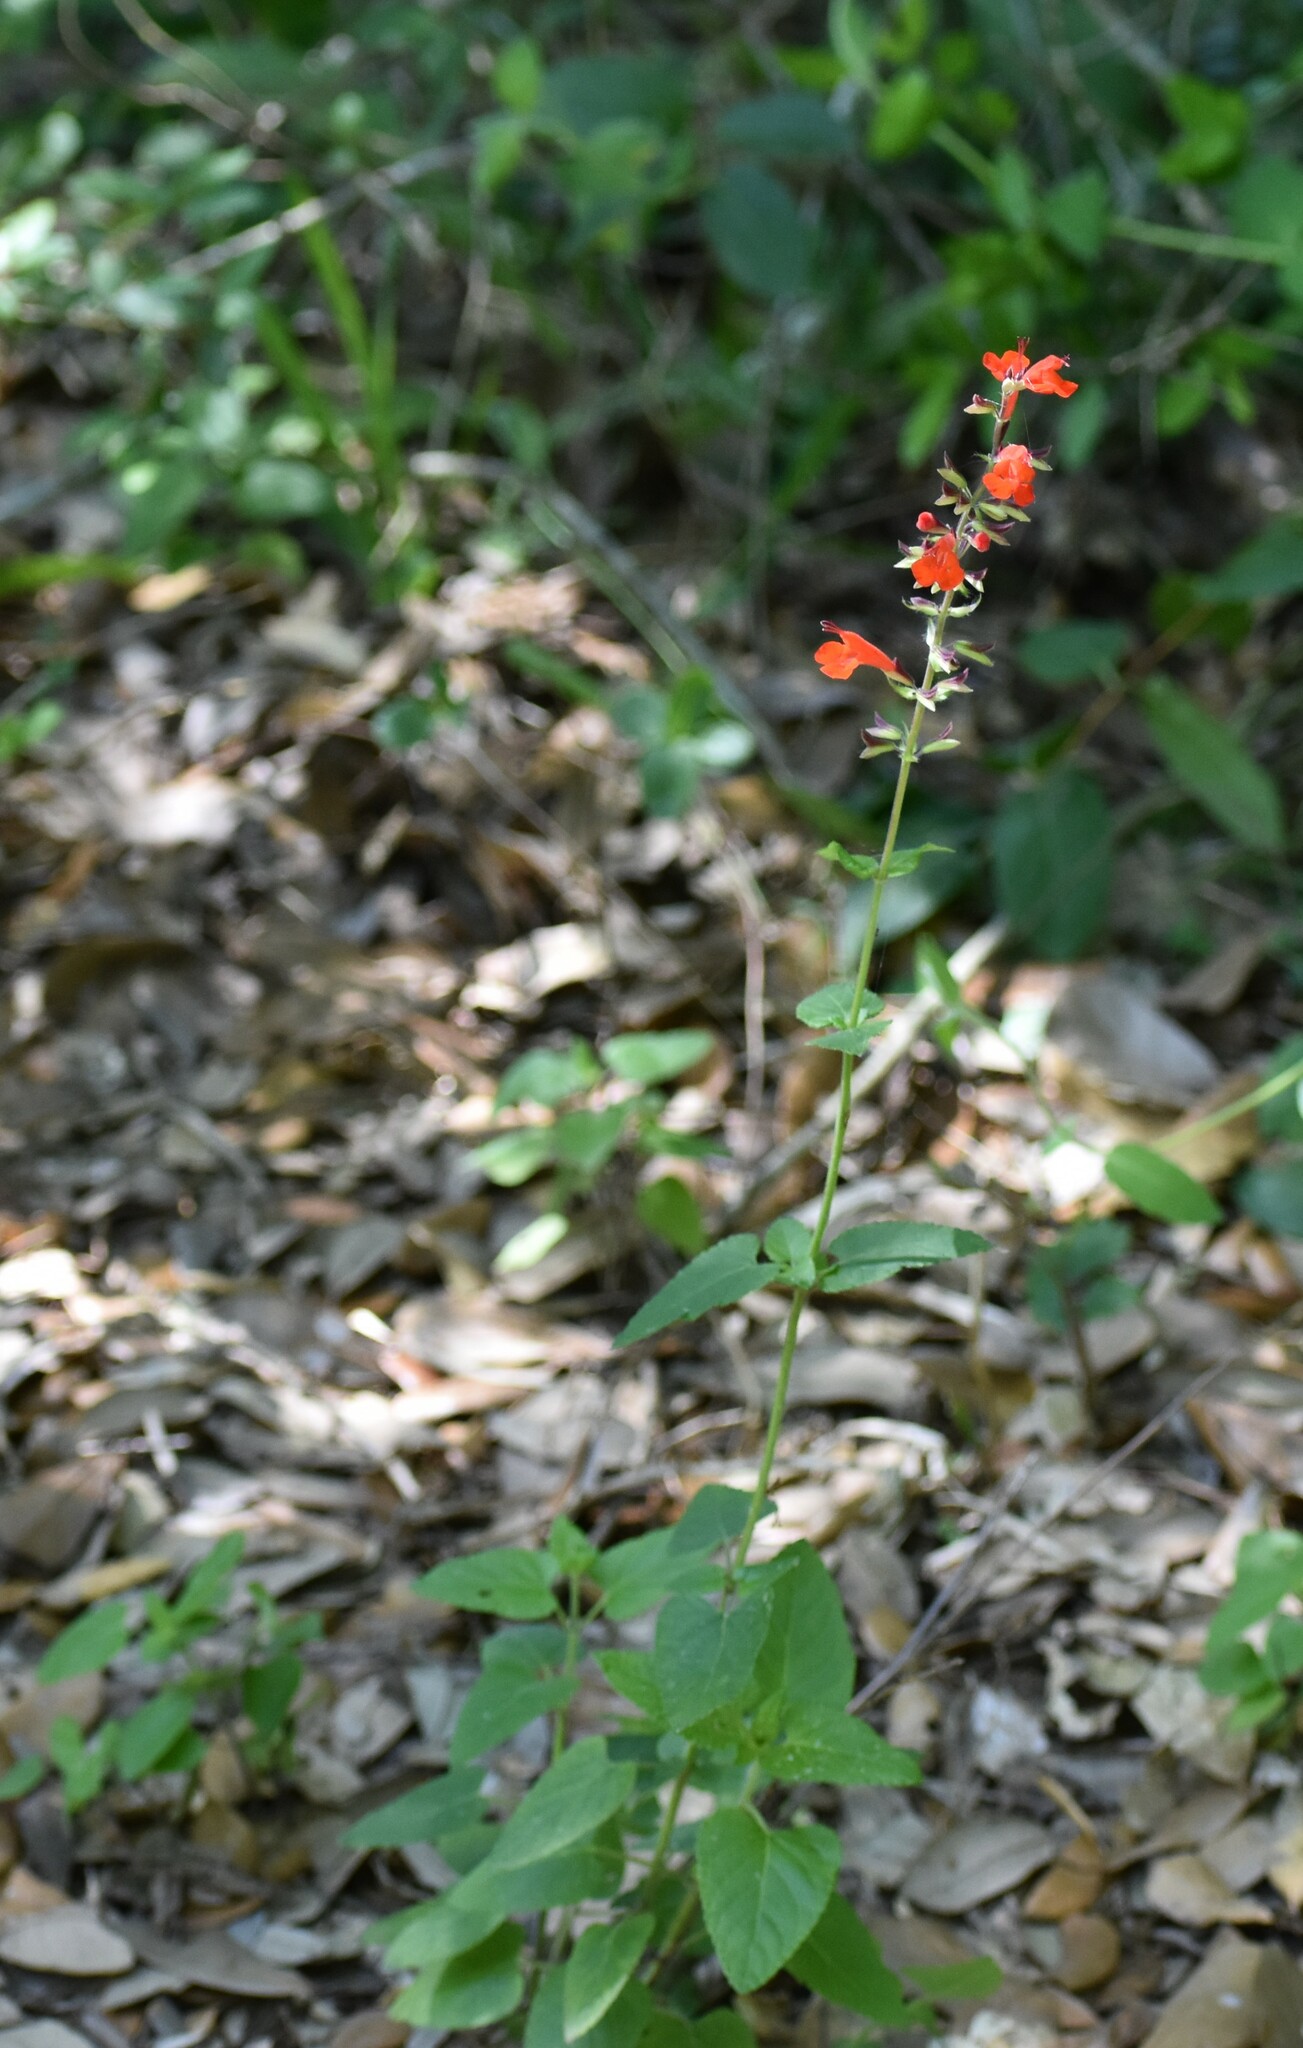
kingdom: Plantae
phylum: Tracheophyta
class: Magnoliopsida
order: Lamiales
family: Lamiaceae
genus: Salvia
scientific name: Salvia coccinea
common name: Blood sage
